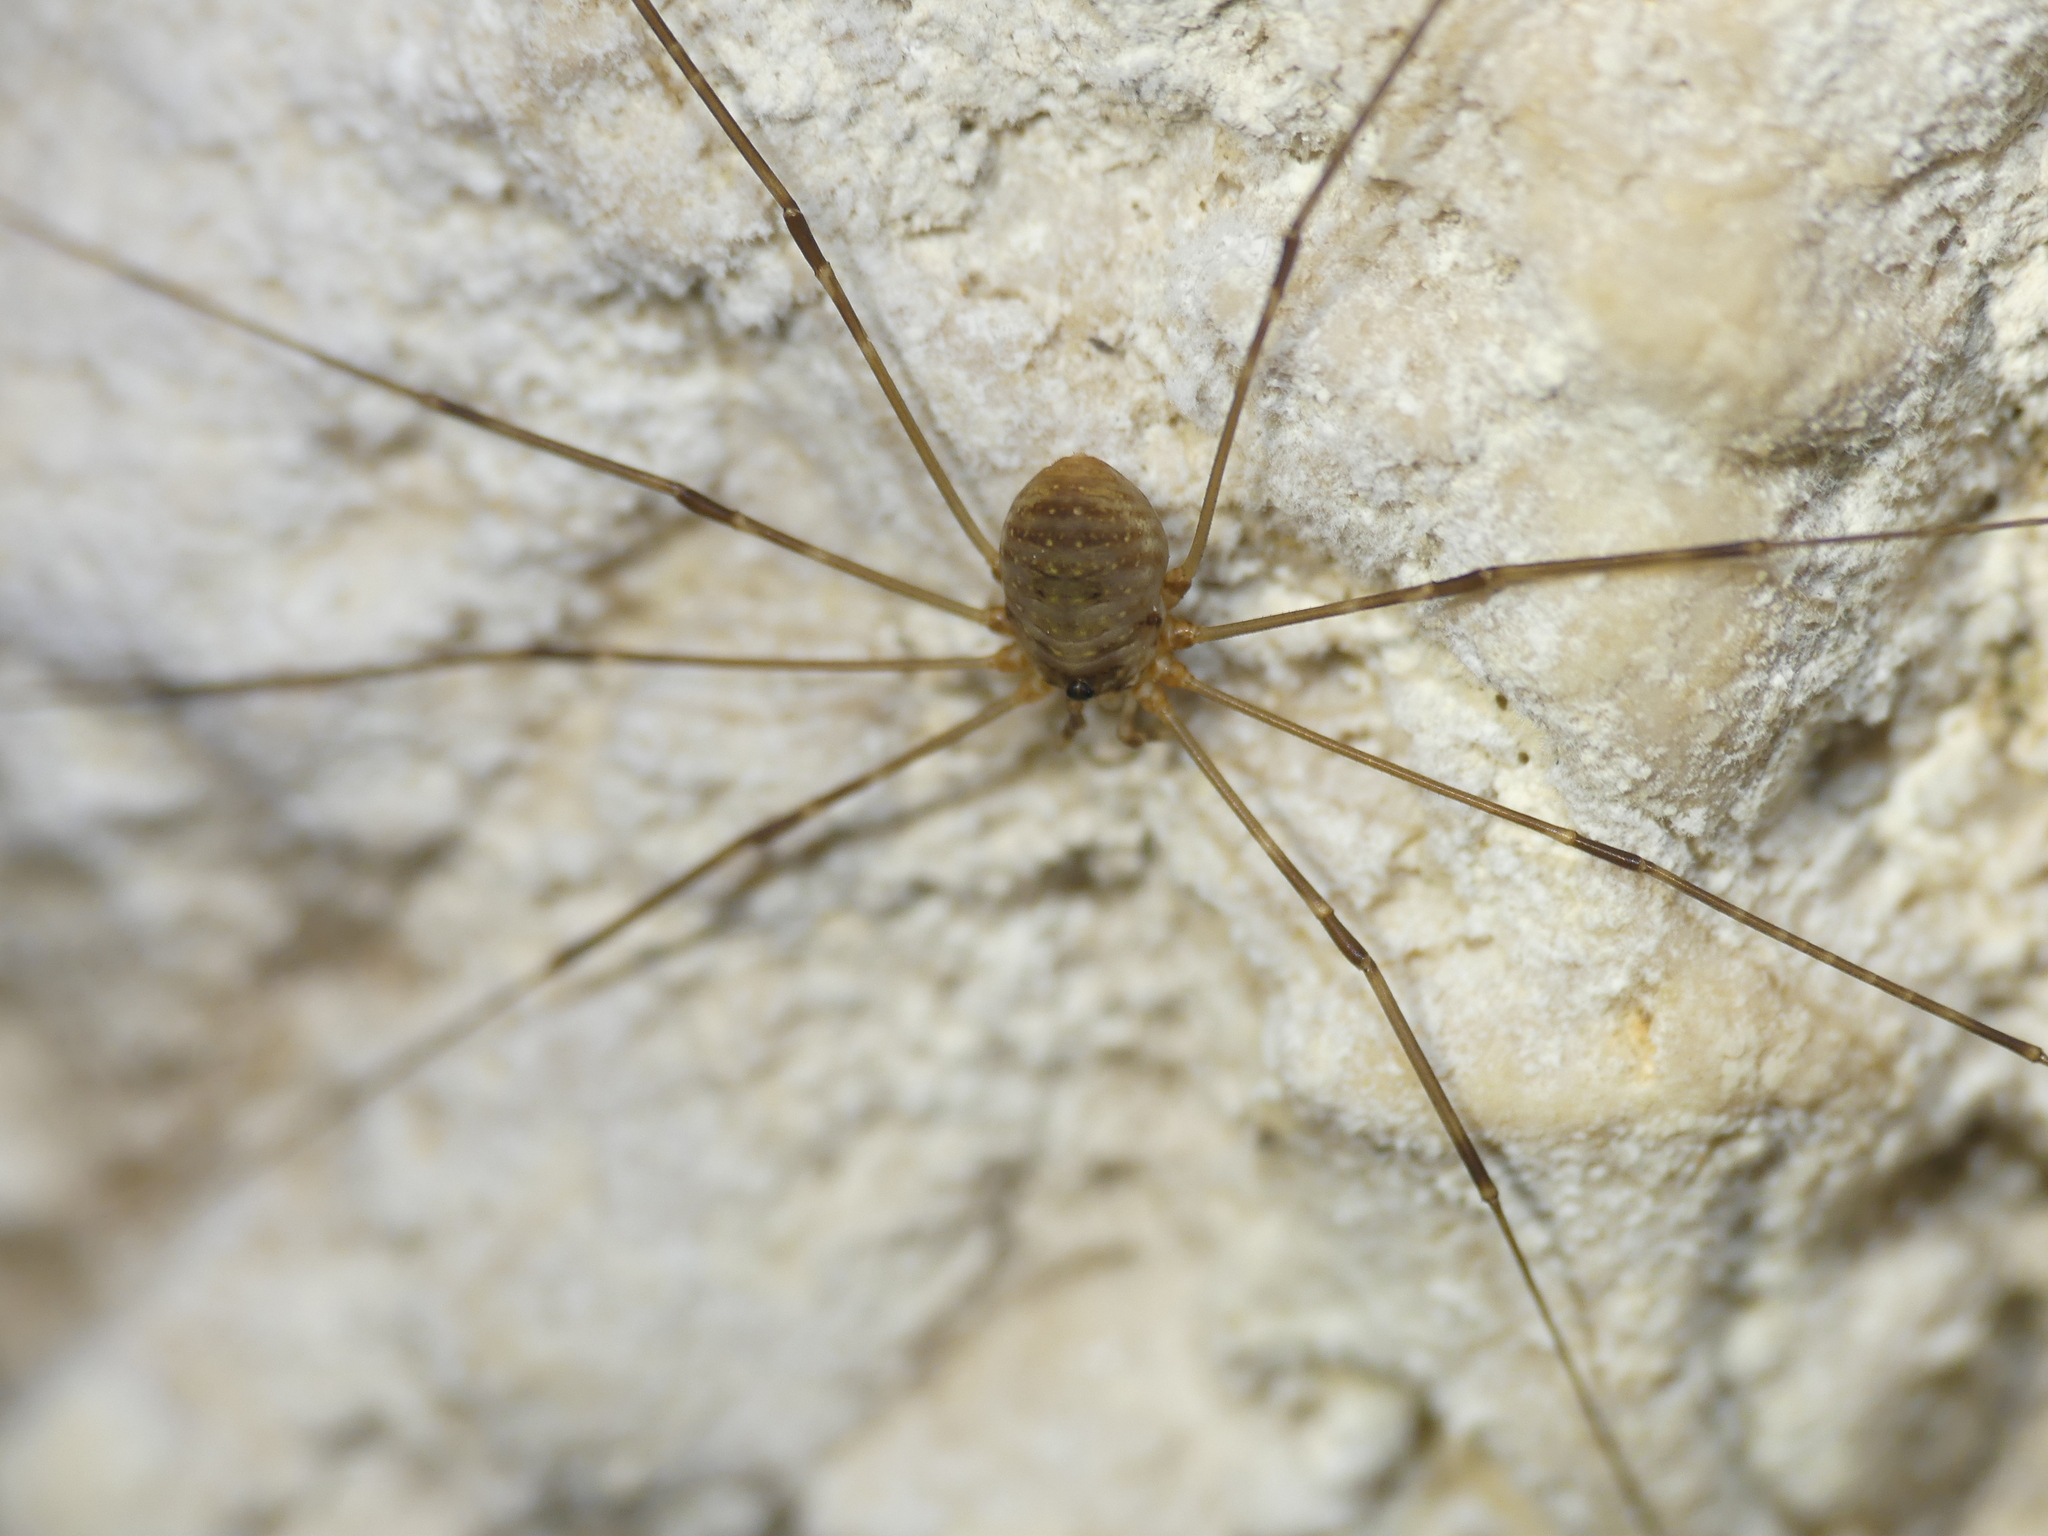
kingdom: Animalia
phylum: Arthropoda
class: Arachnida
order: Opiliones
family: Phalangiidae
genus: Amilenus
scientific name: Amilenus aurantiacus
